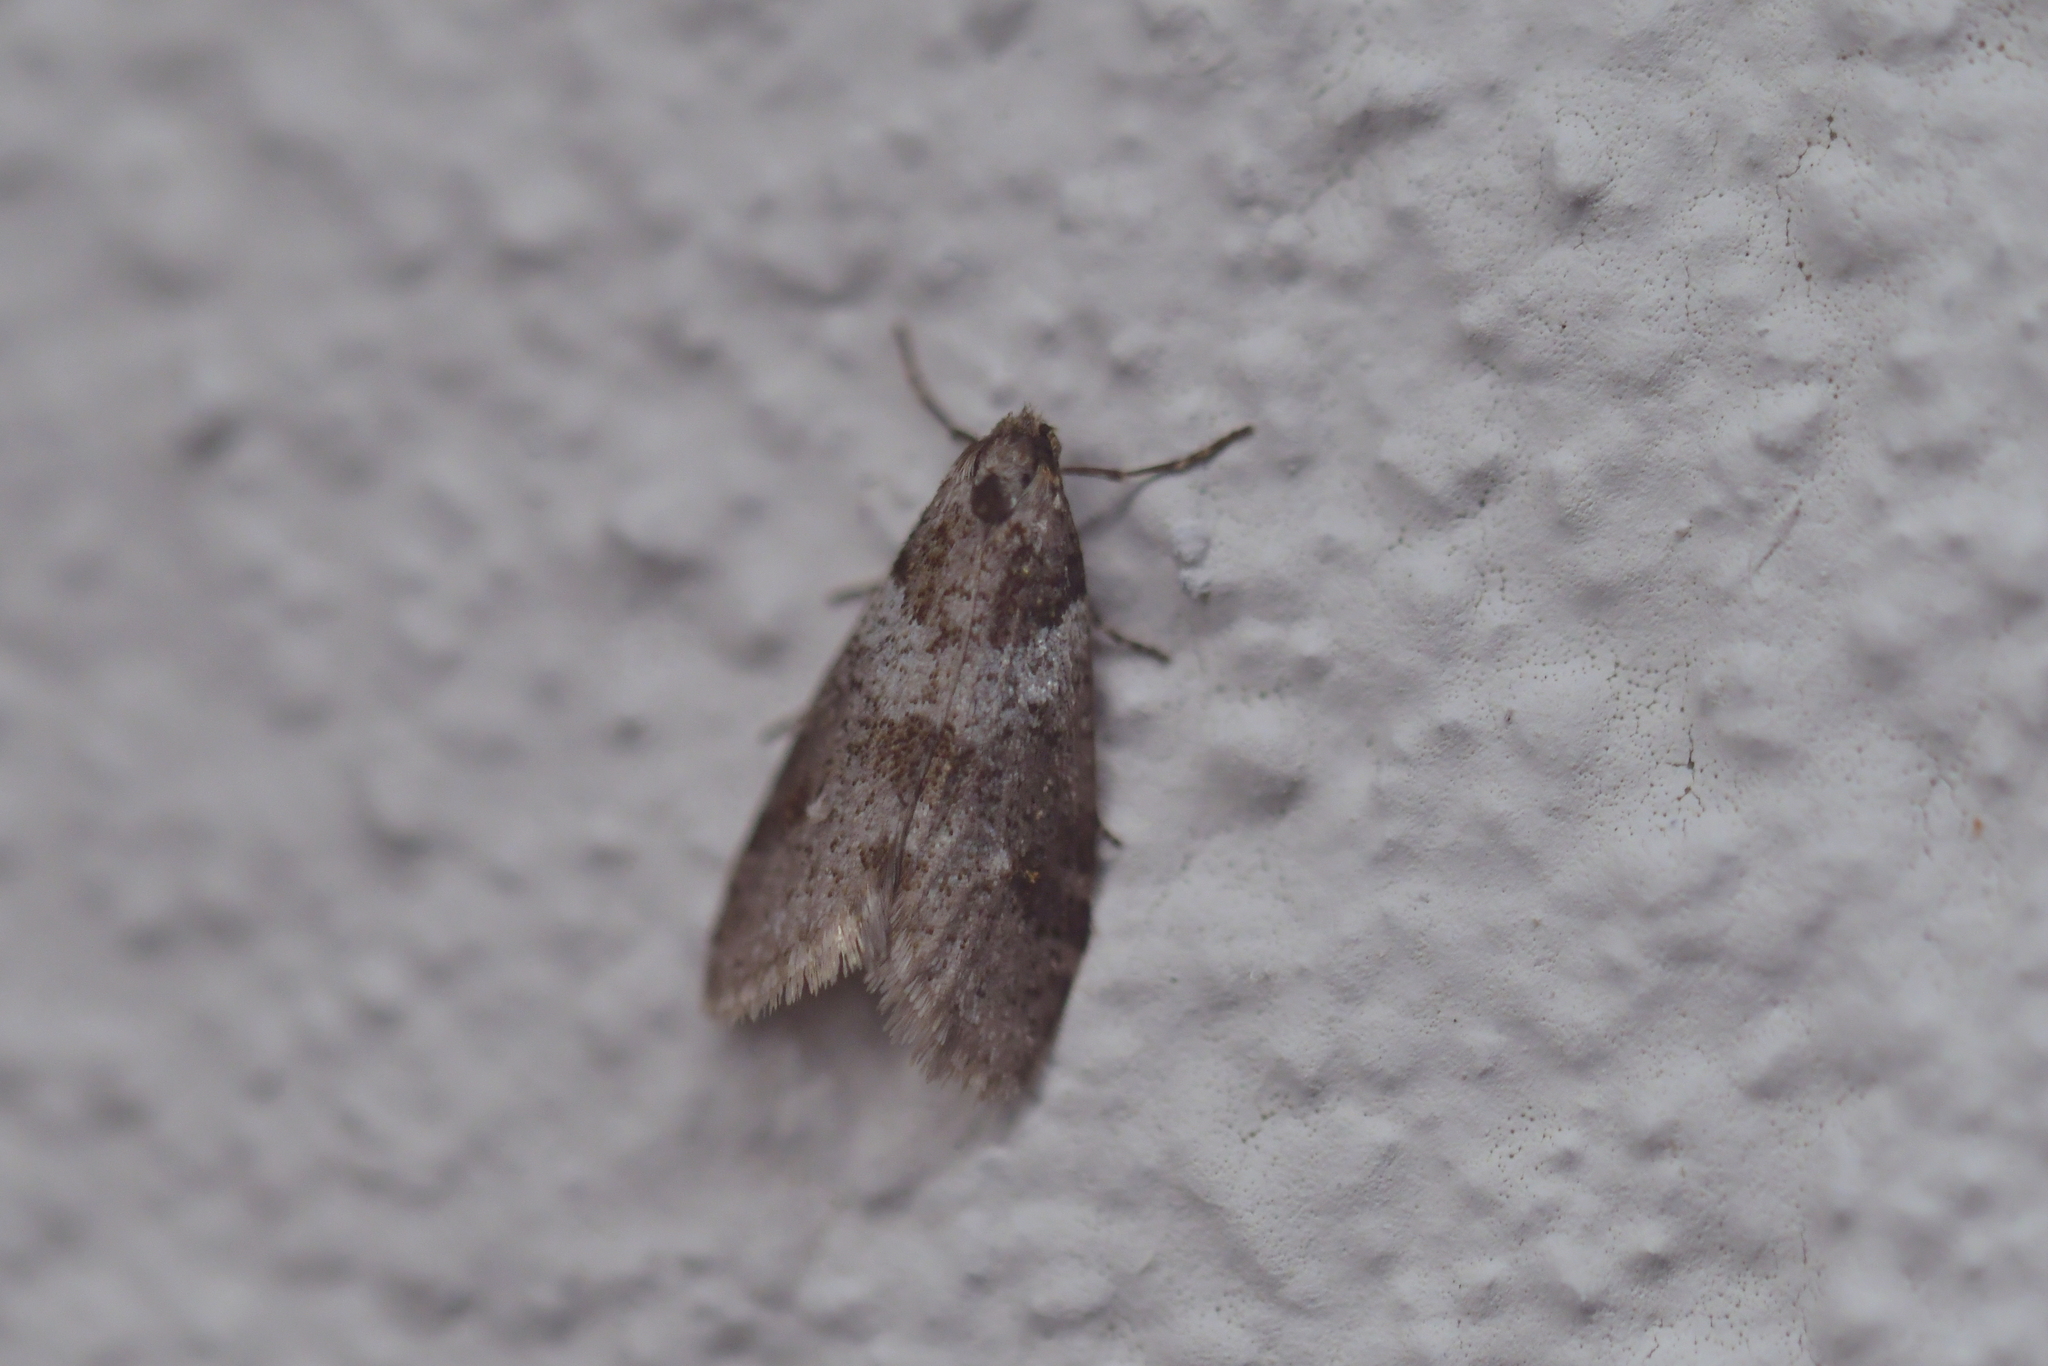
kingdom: Animalia
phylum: Arthropoda
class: Insecta
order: Lepidoptera
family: Psychidae
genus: Lepidoscia
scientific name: Lepidoscia heliochares
